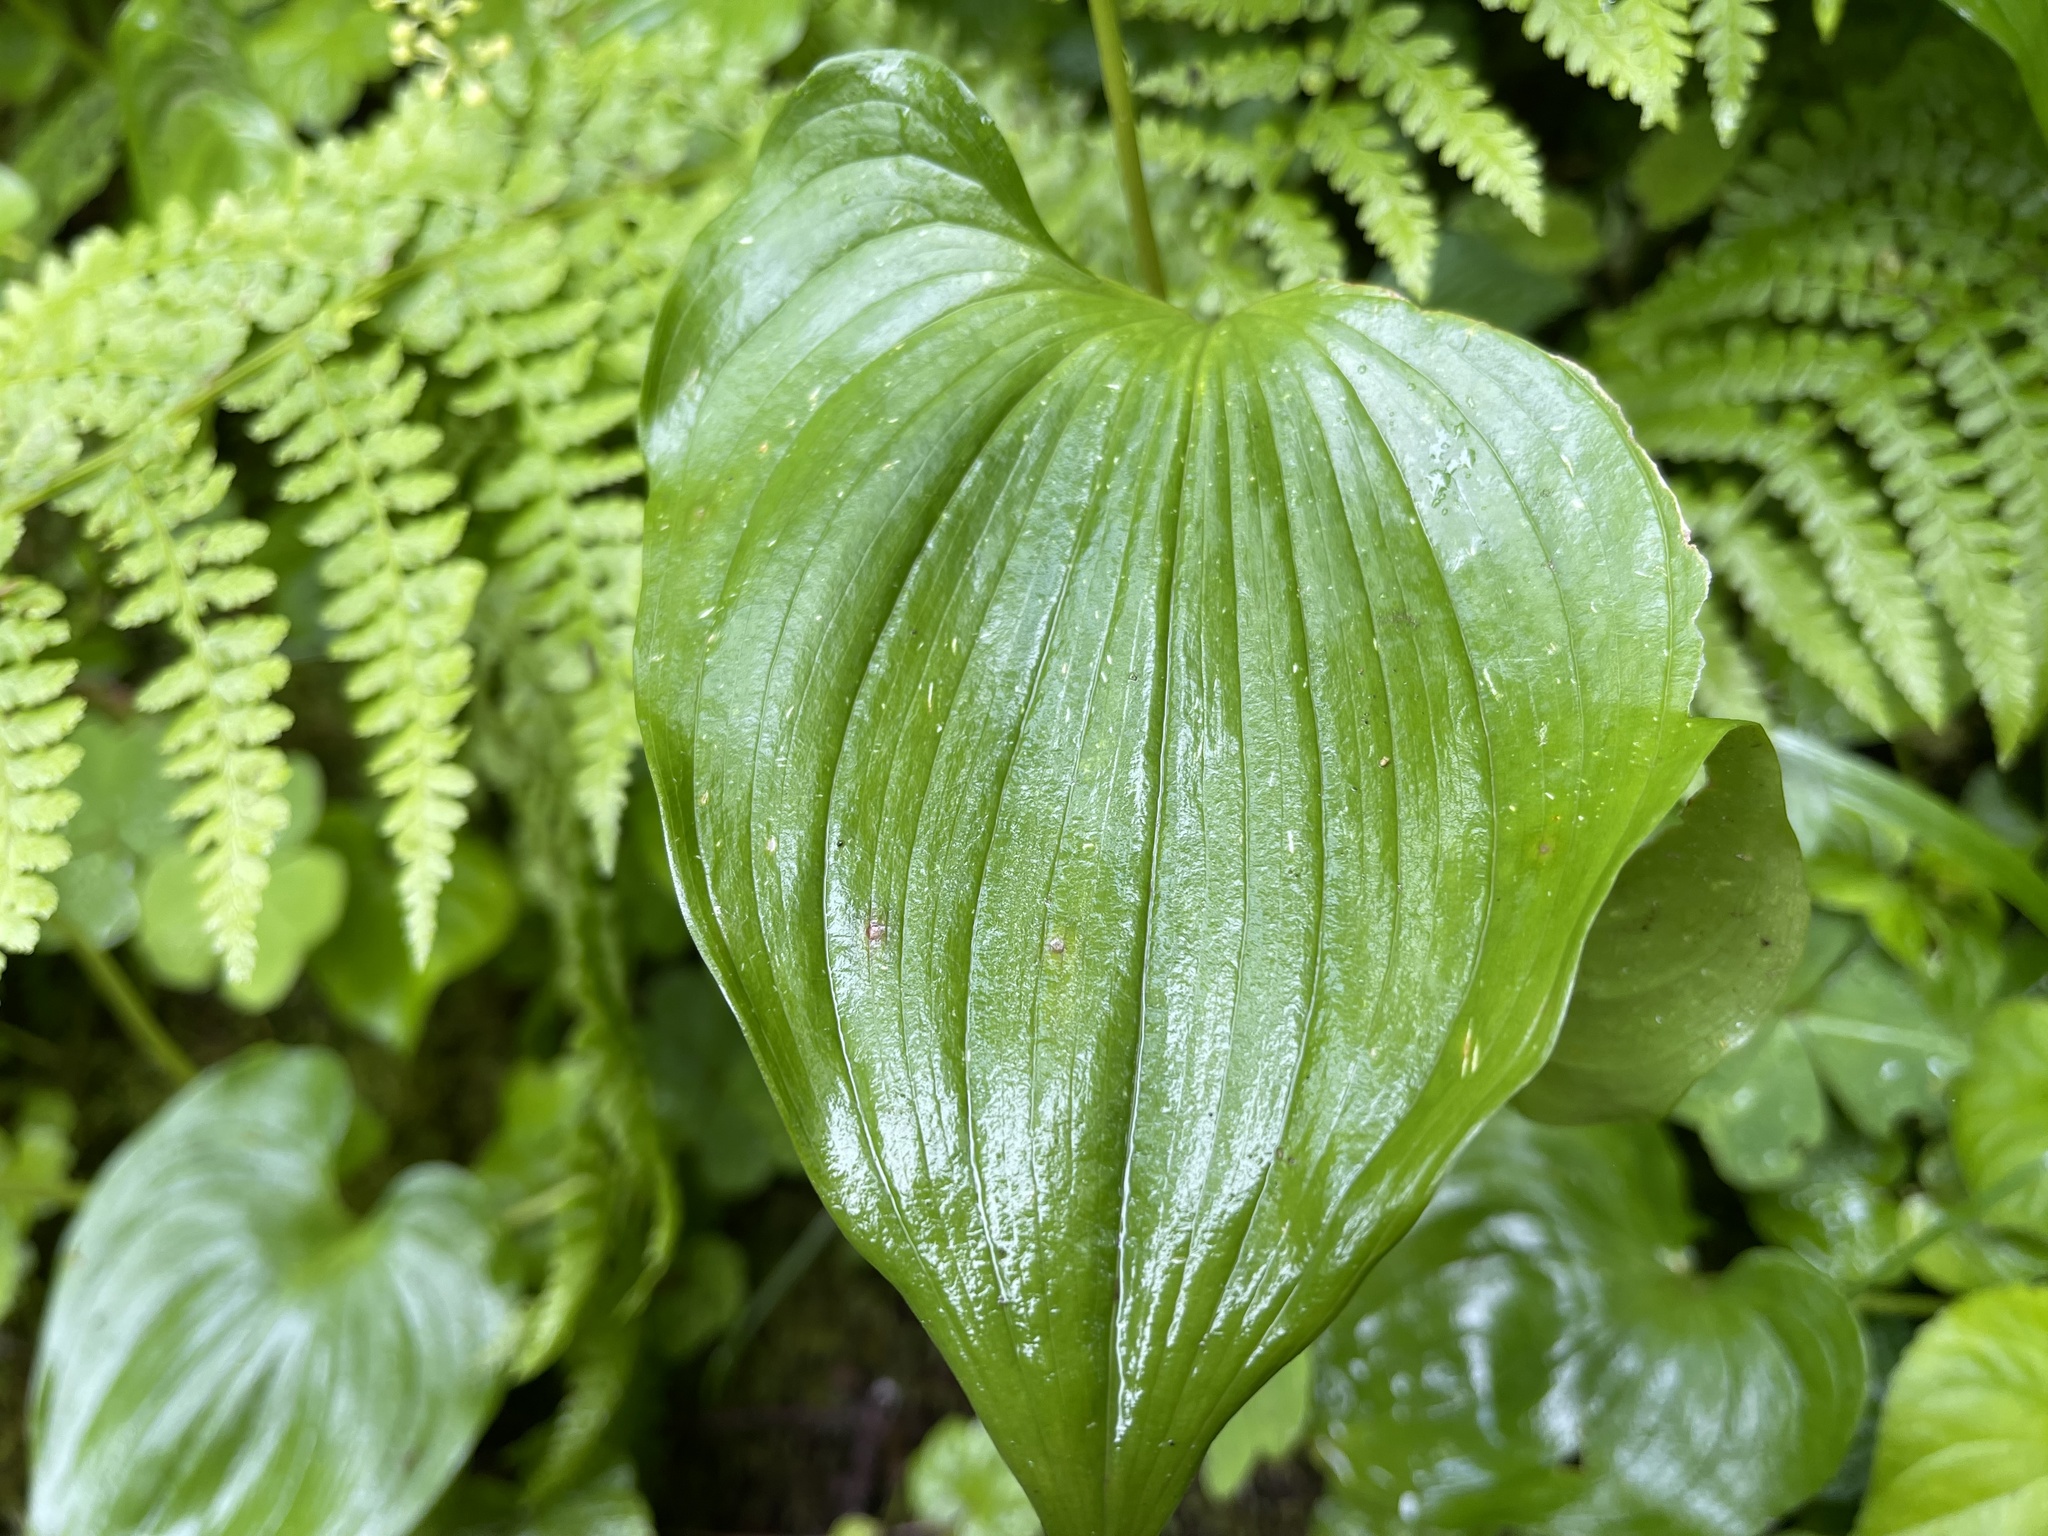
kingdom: Plantae
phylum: Tracheophyta
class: Liliopsida
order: Asparagales
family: Asparagaceae
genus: Maianthemum
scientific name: Maianthemum dilatatum
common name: False lily-of-the-valley
